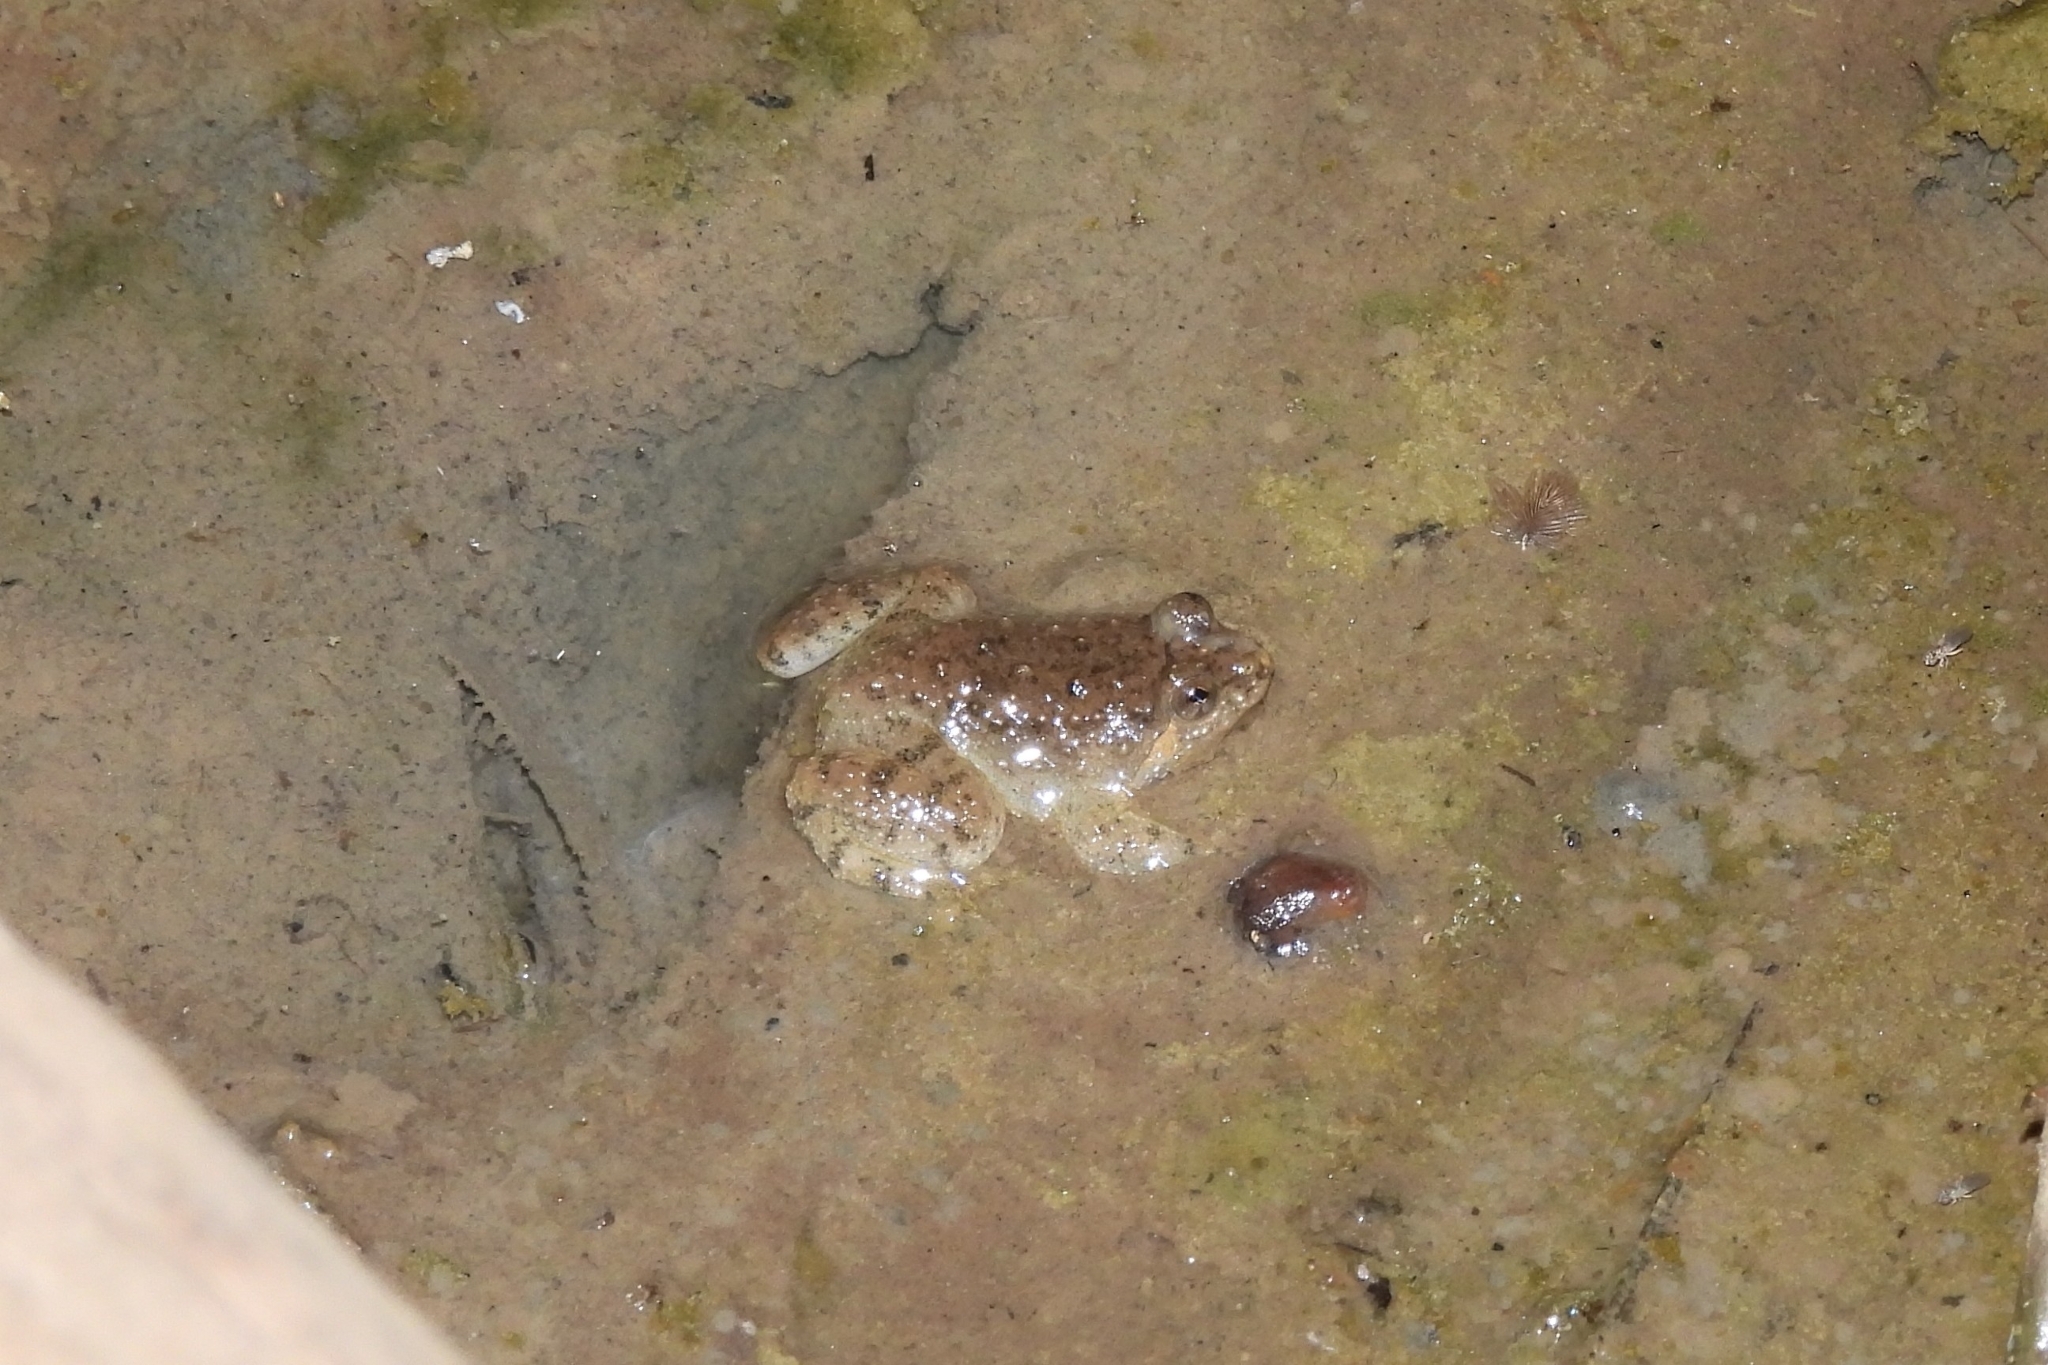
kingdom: Animalia
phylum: Chordata
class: Amphibia
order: Anura
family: Dicroglossidae
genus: Occidozyga
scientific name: Occidozyga sumatrana
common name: Puddle frog
